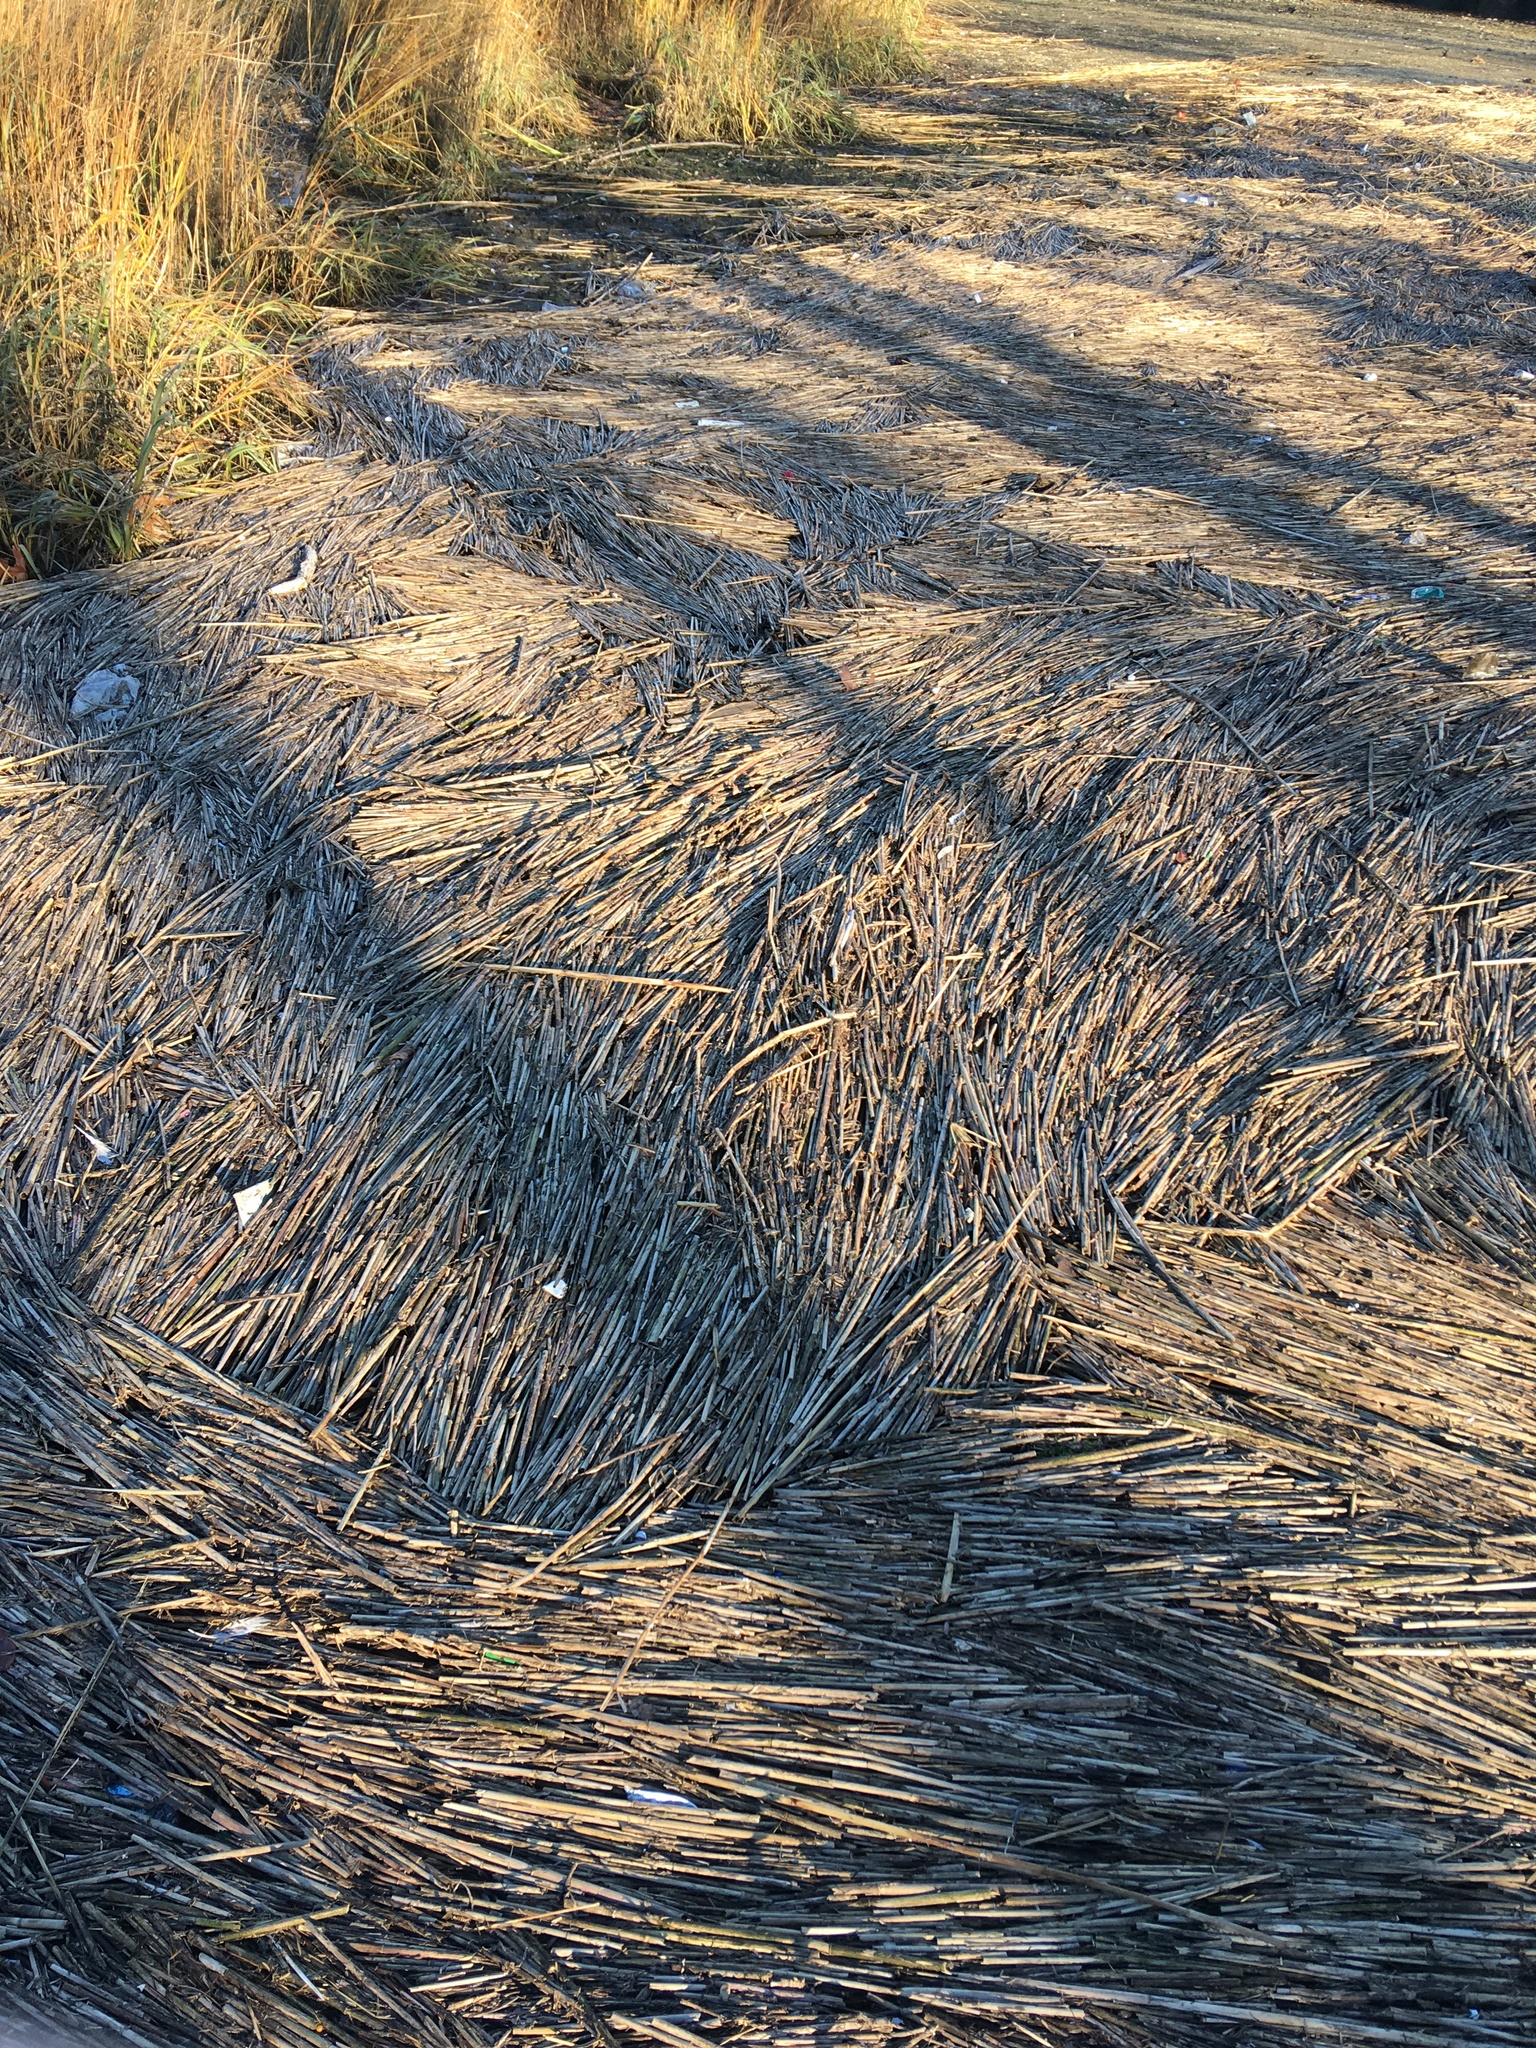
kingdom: Plantae
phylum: Tracheophyta
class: Liliopsida
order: Poales
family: Poaceae
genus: Phragmites
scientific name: Phragmites australis
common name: Common reed
